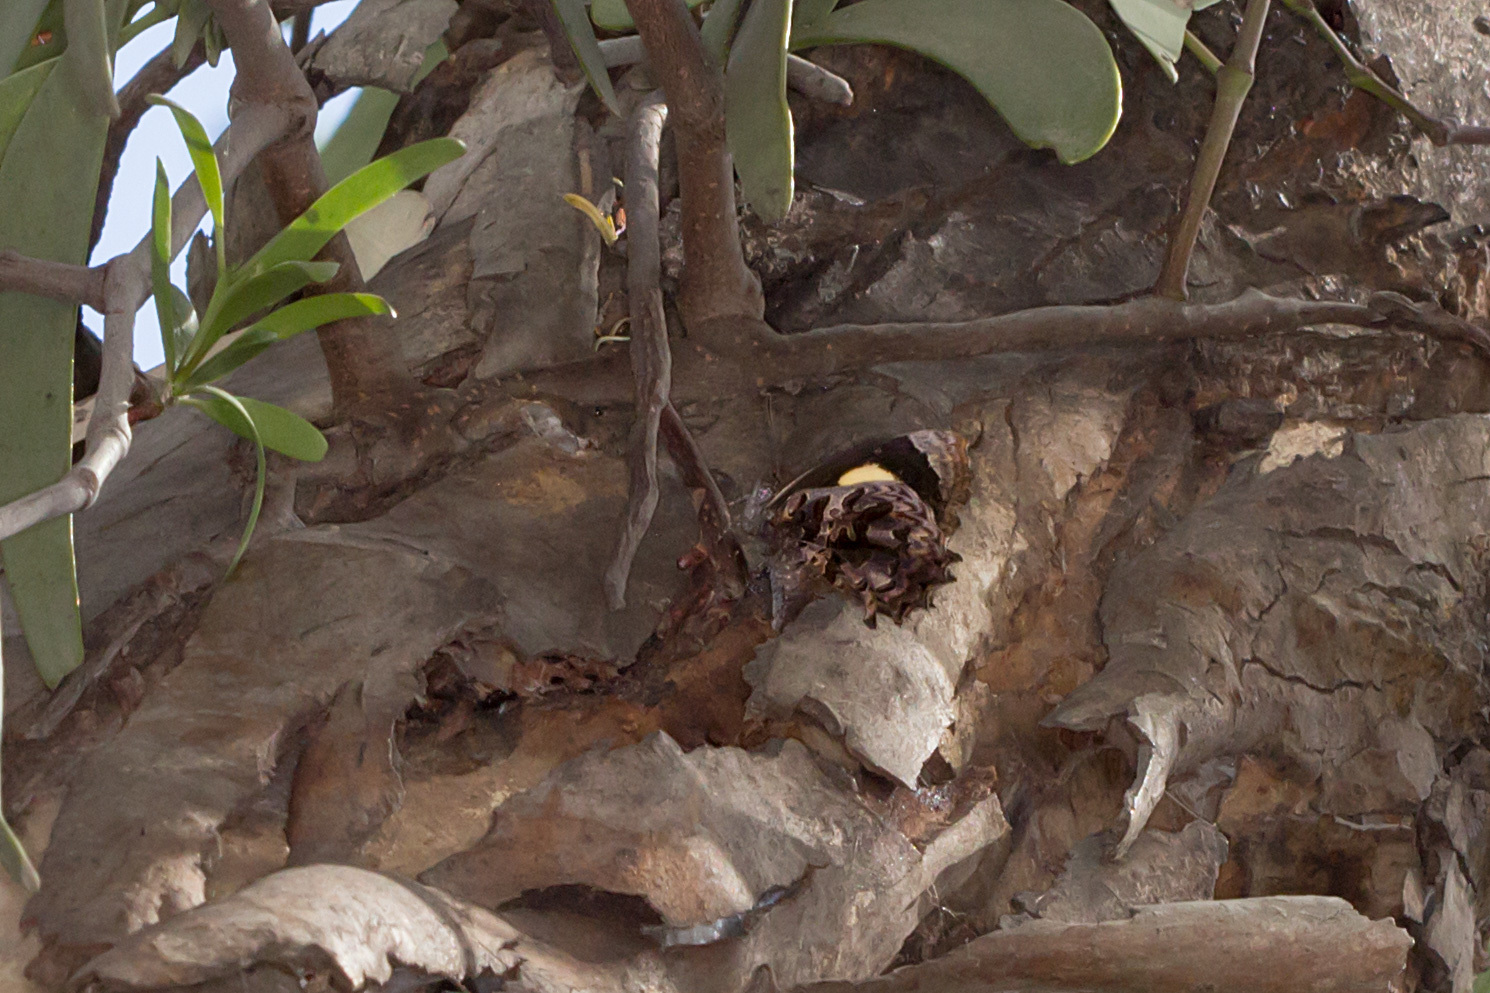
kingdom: Animalia
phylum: Arthropoda
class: Insecta
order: Lepidoptera
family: Lycaenidae
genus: Ogyris
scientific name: Ogyris abrota
